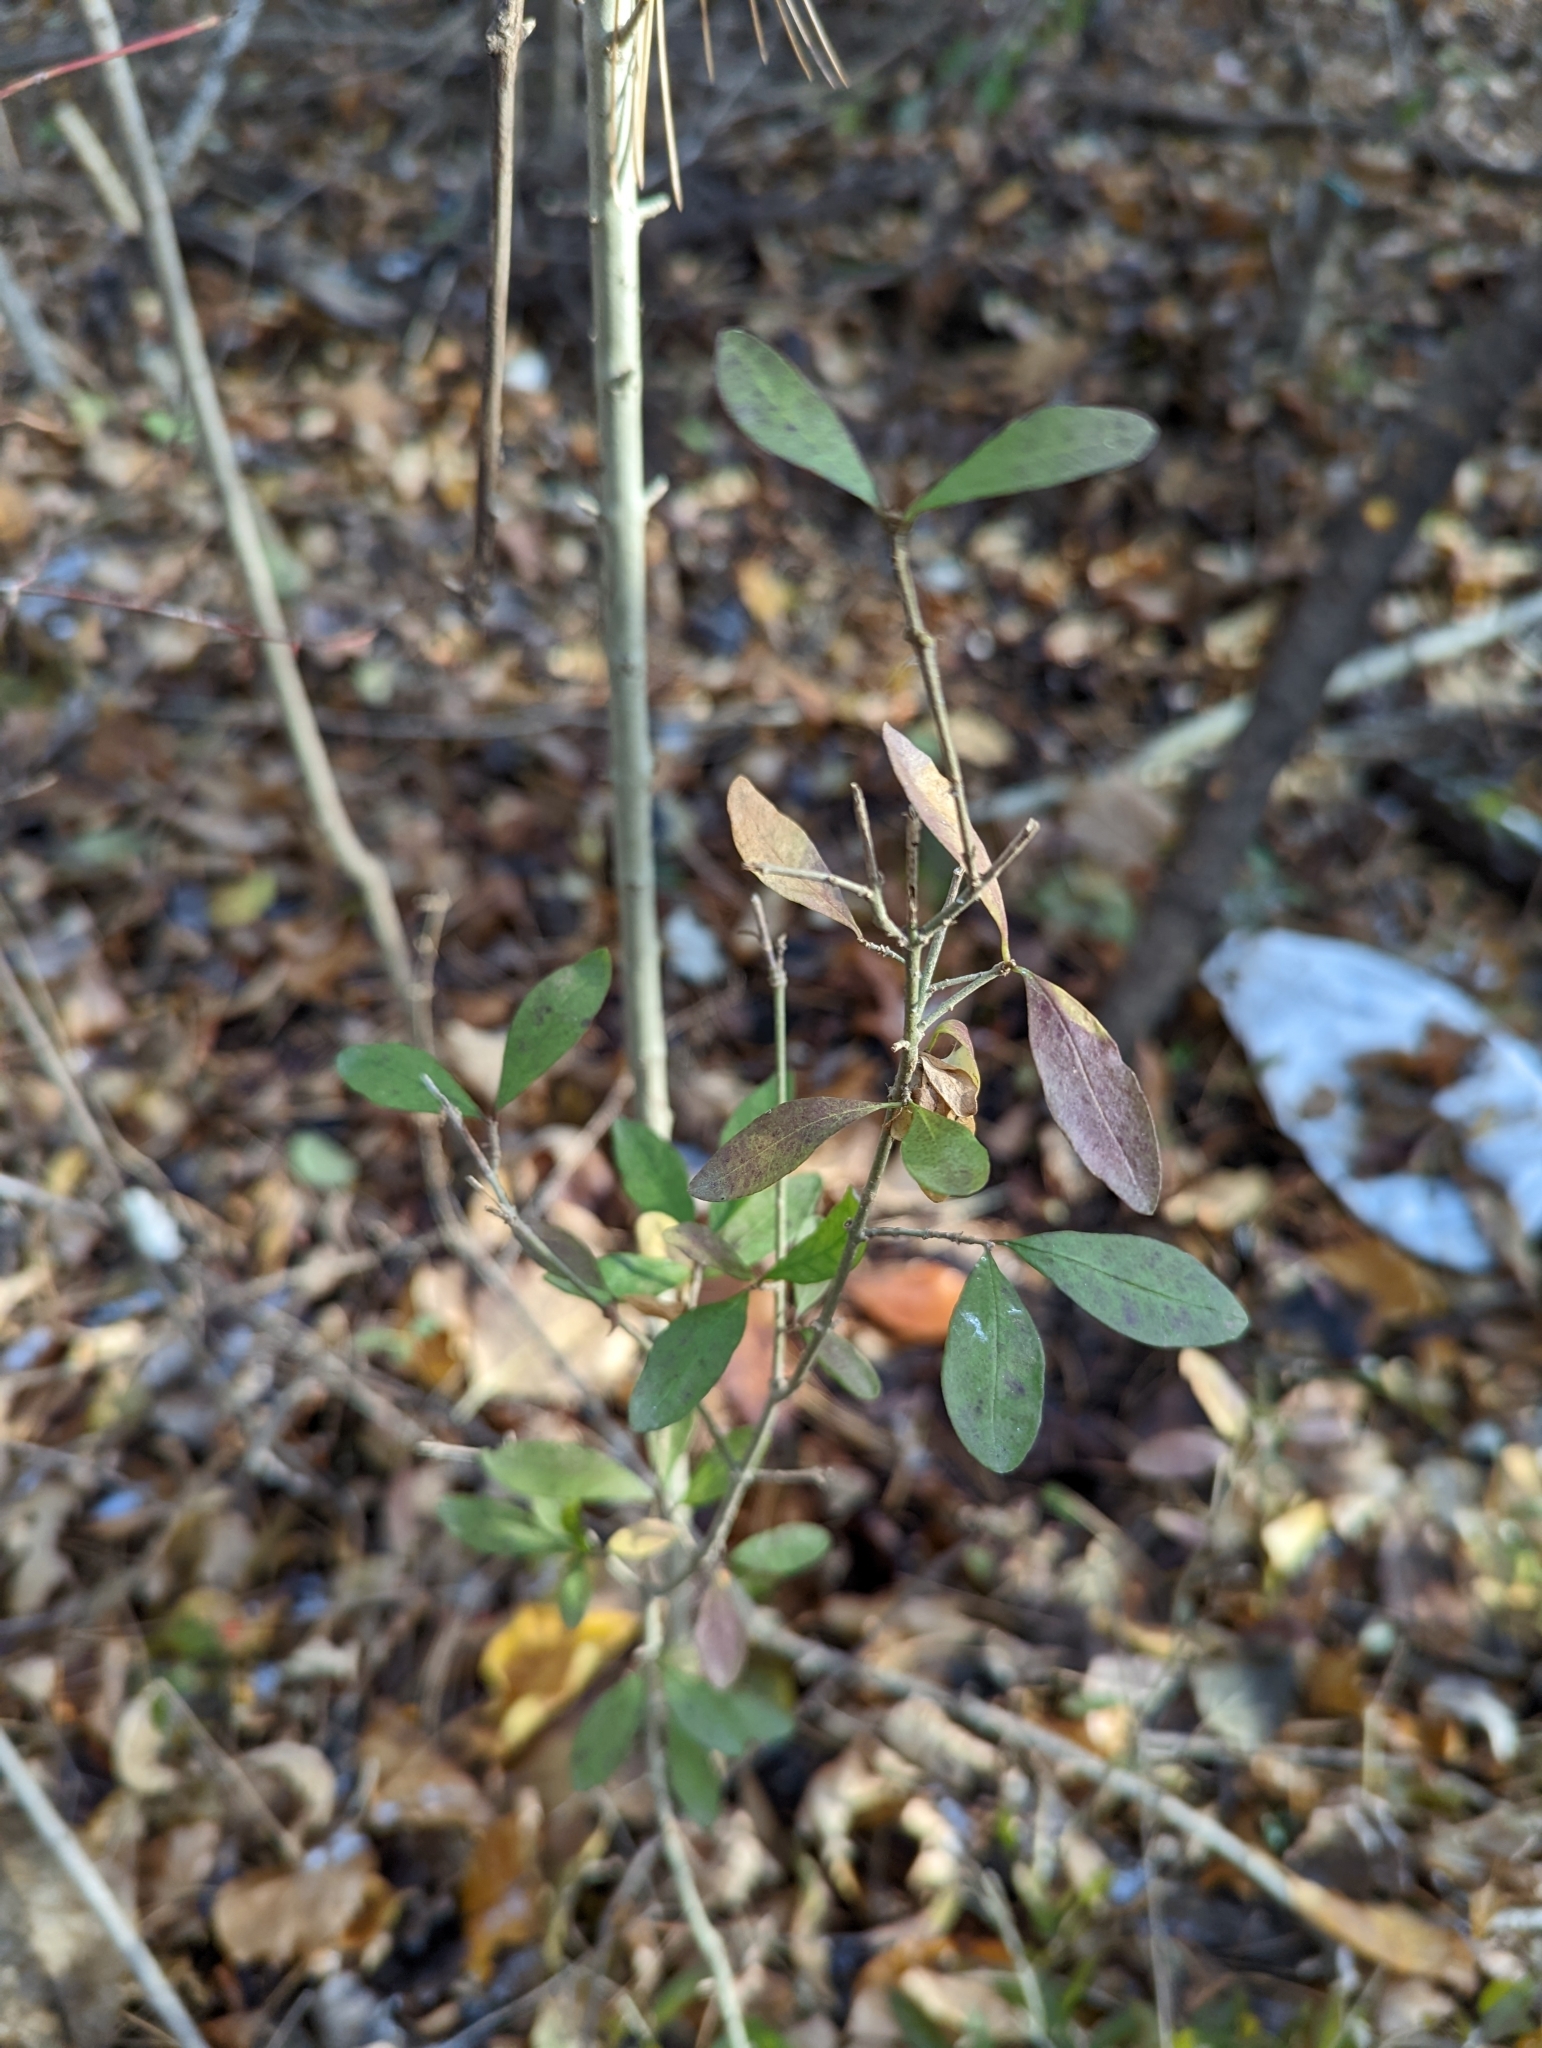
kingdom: Plantae
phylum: Tracheophyta
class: Magnoliopsida
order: Lamiales
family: Oleaceae
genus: Ligustrum
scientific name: Ligustrum obtusifolium
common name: Border privet
